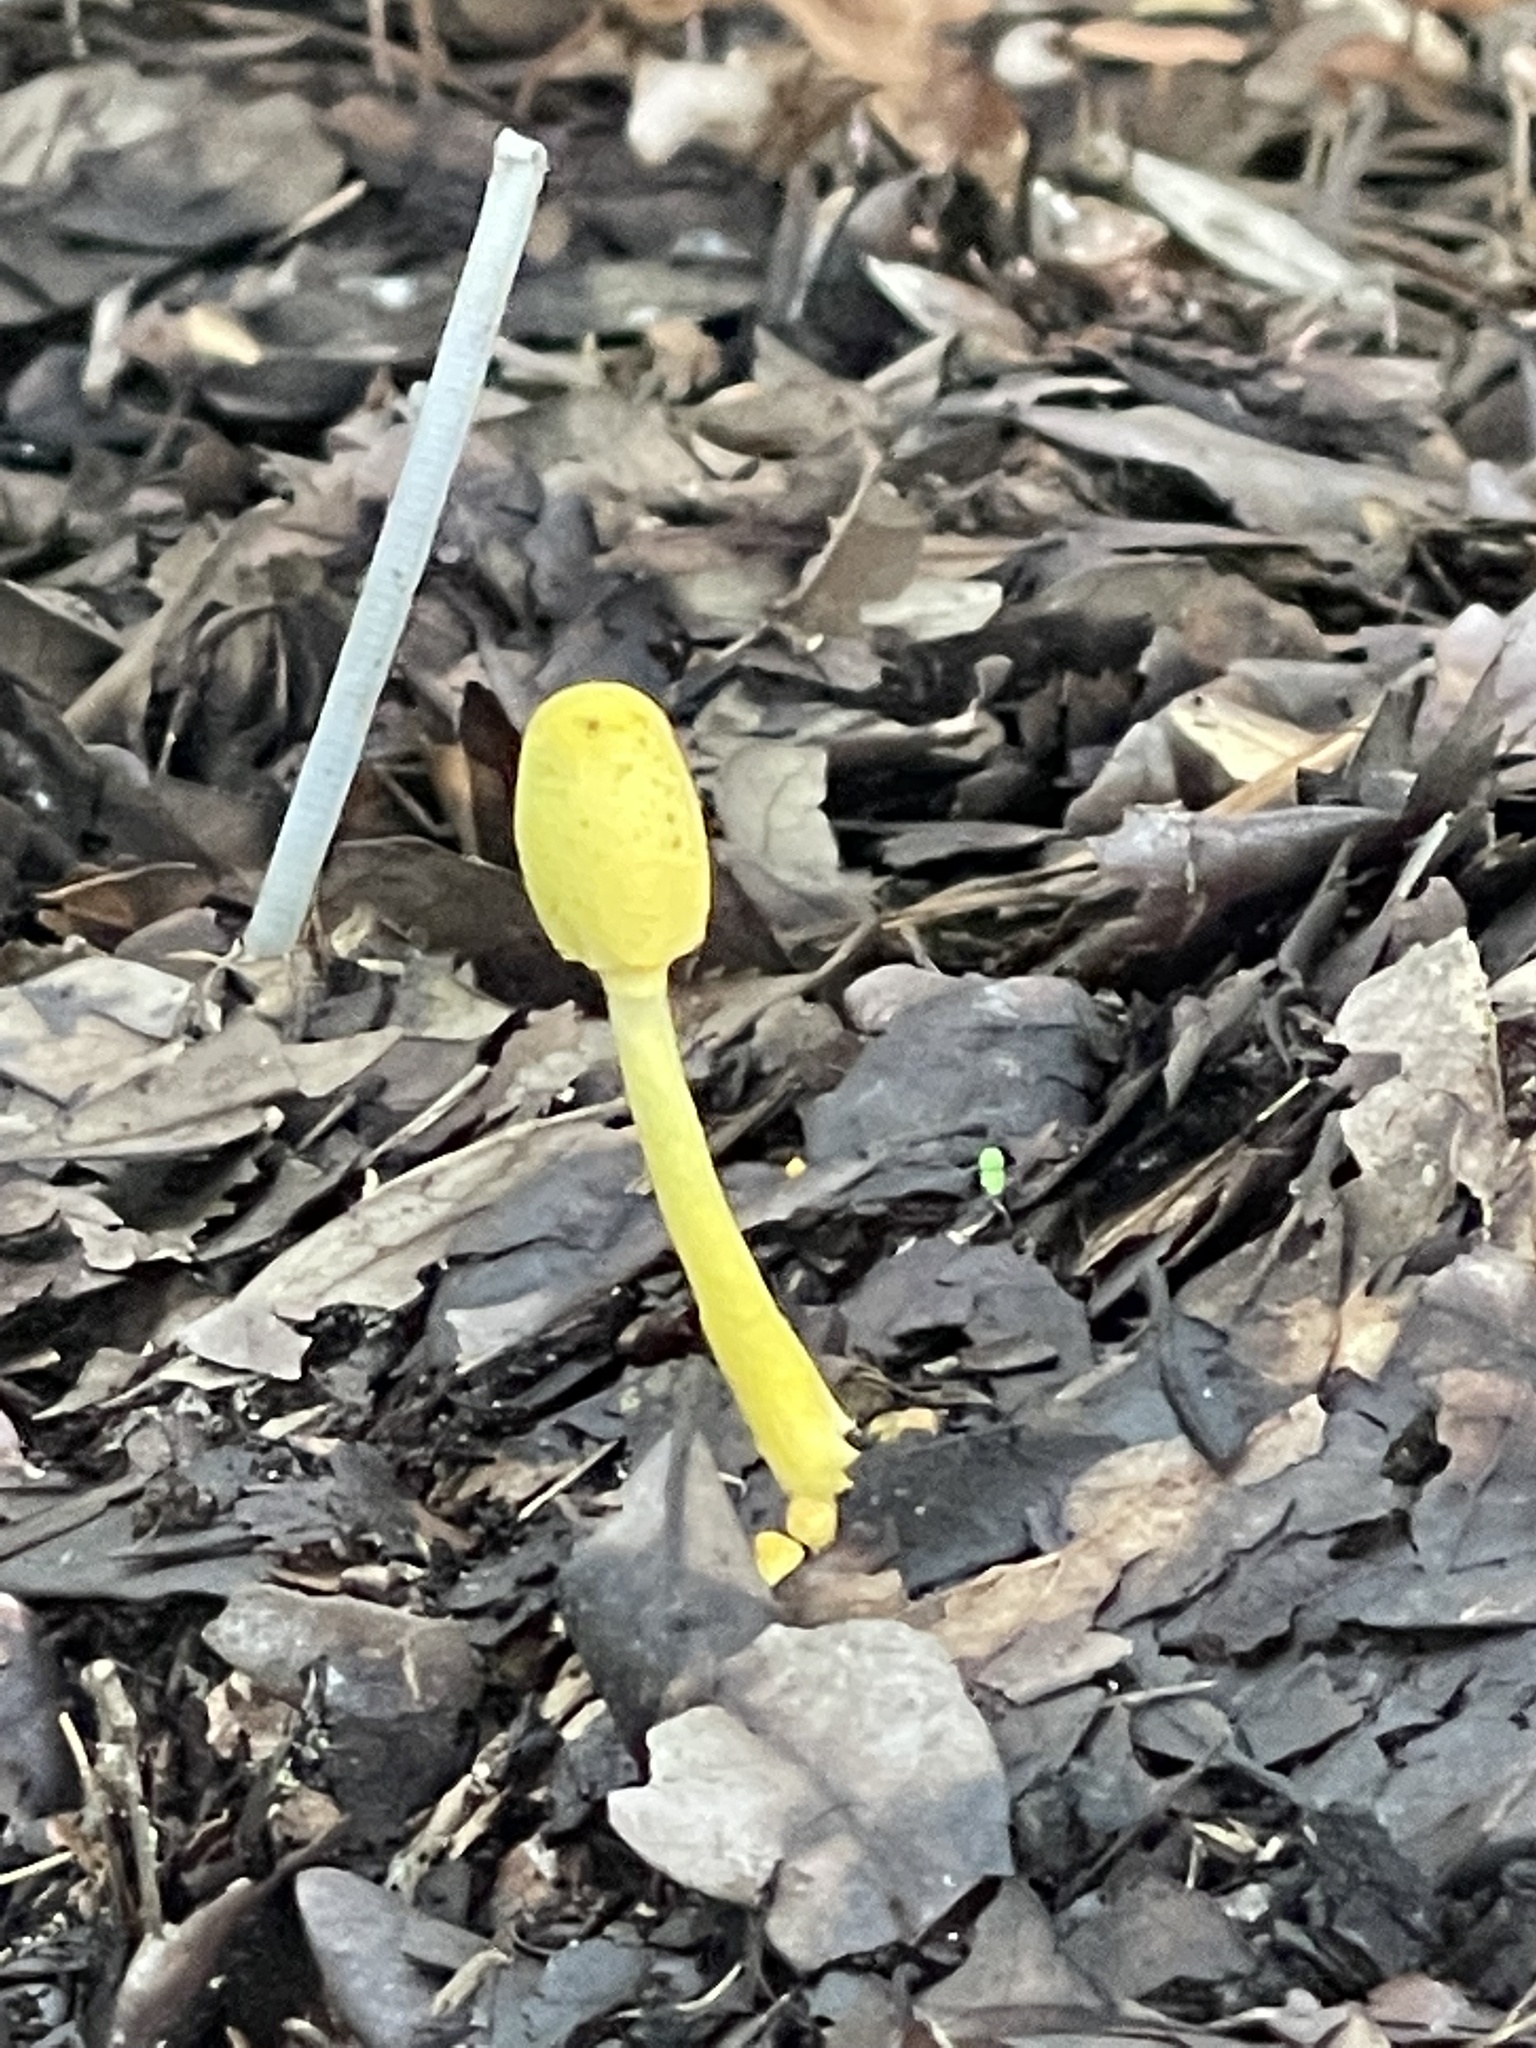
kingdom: Fungi
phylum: Basidiomycota
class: Agaricomycetes
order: Agaricales
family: Agaricaceae
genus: Leucocoprinus
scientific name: Leucocoprinus birnbaumii
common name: Plantpot dapperling
